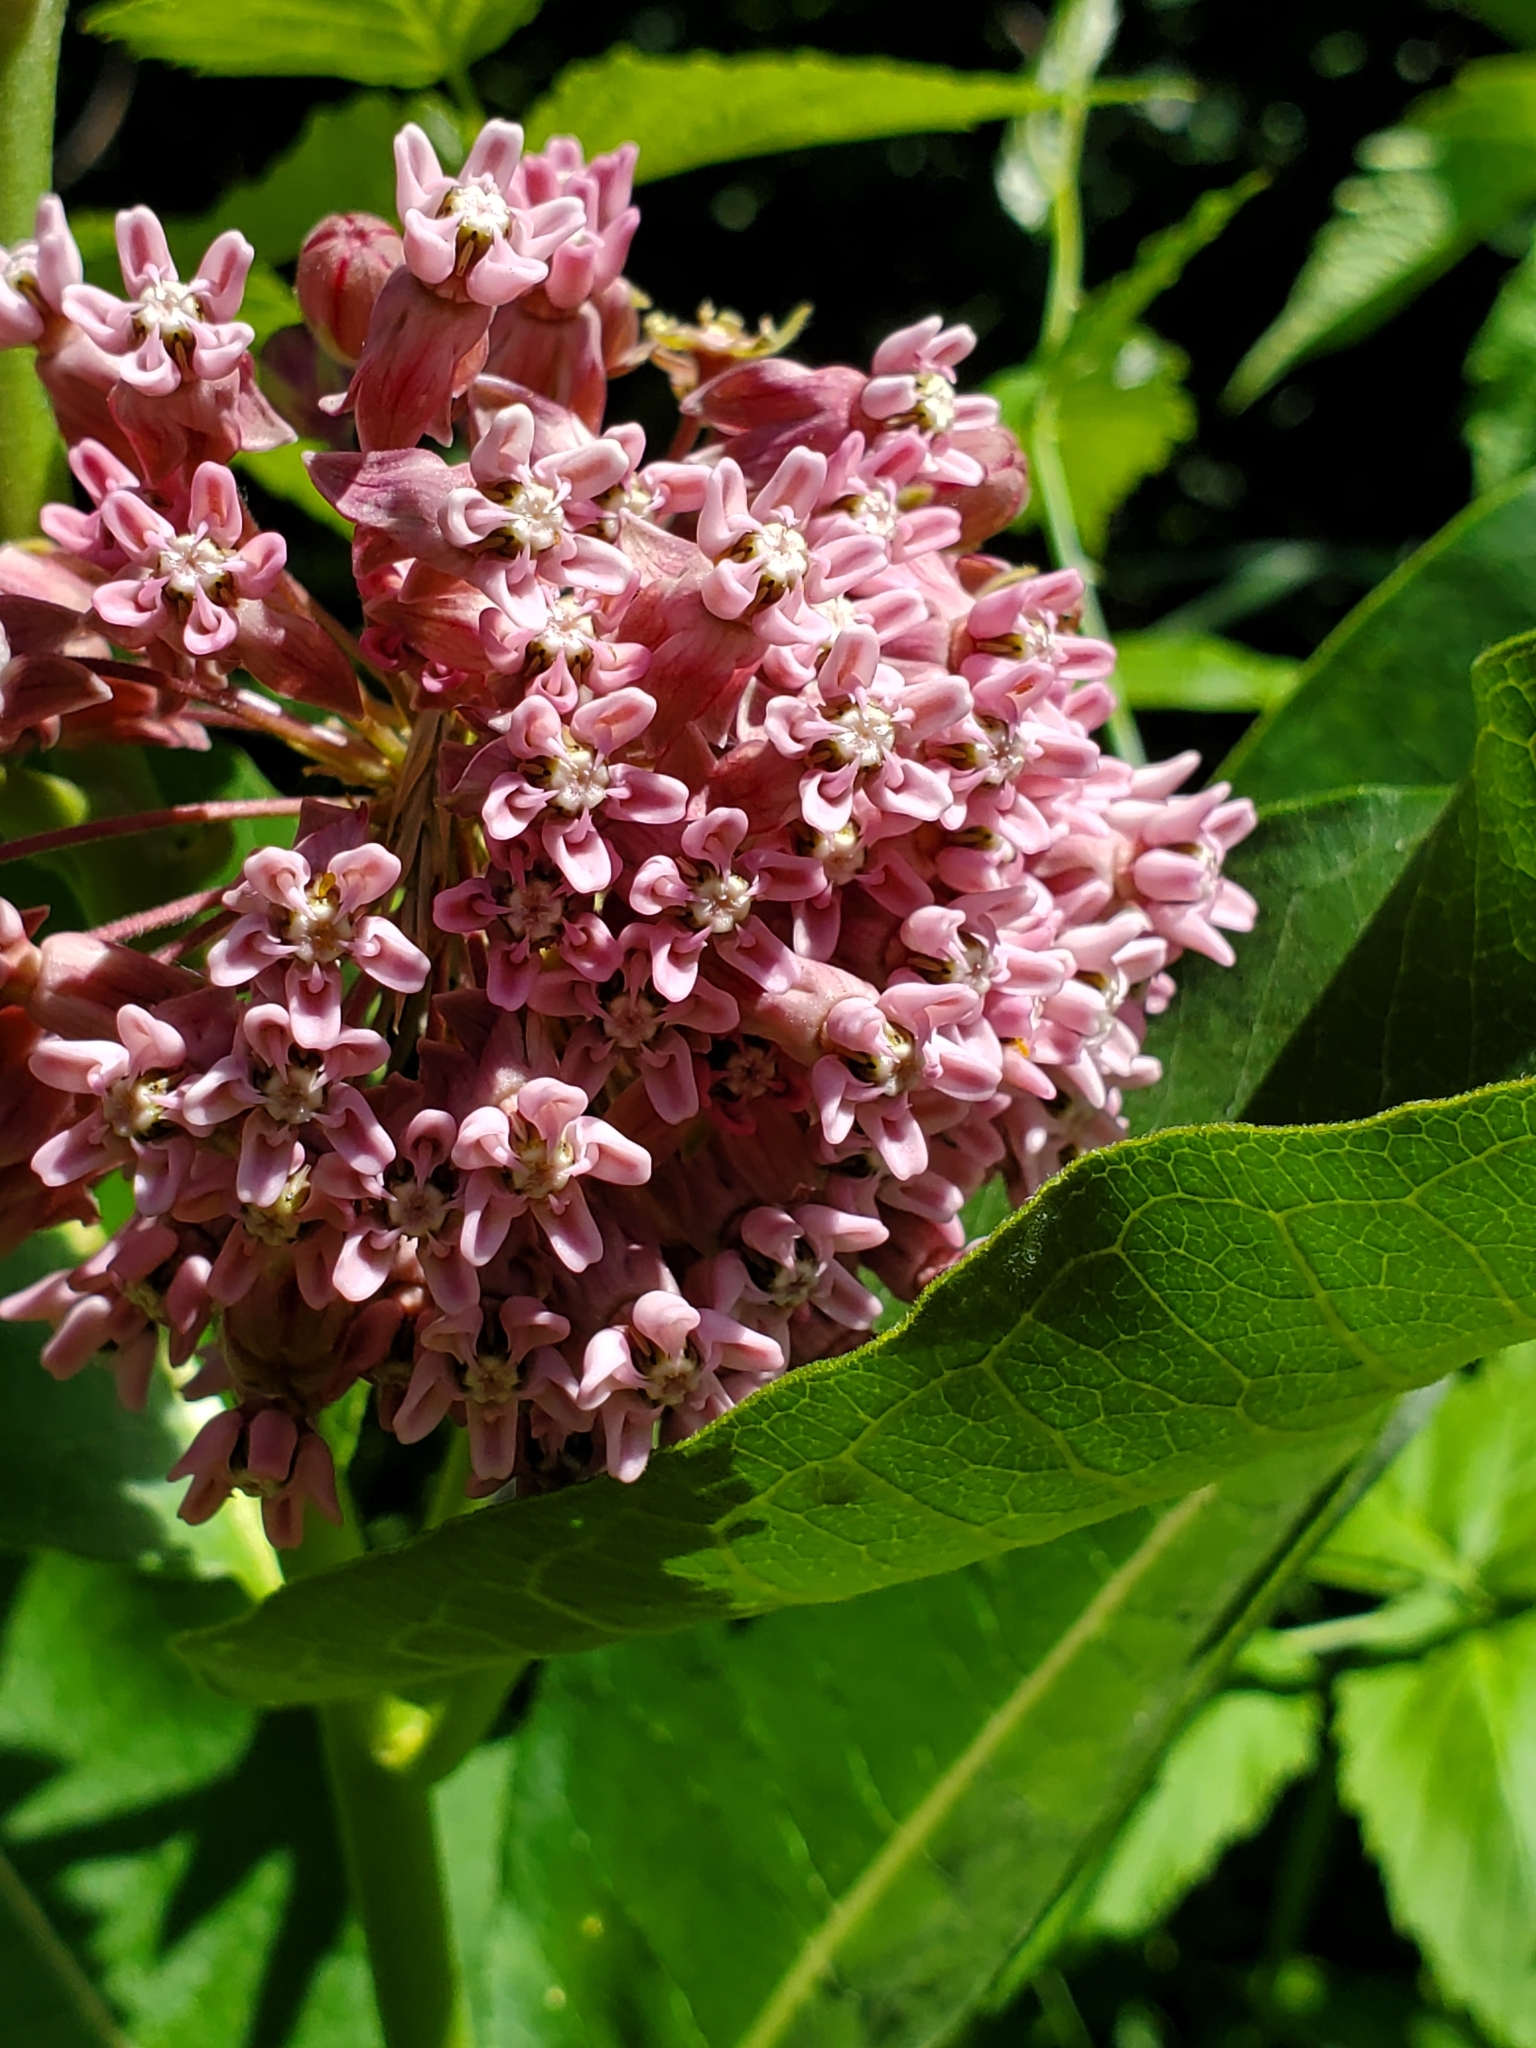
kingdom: Plantae
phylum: Tracheophyta
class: Magnoliopsida
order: Gentianales
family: Apocynaceae
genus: Asclepias
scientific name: Asclepias syriaca
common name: Common milkweed
